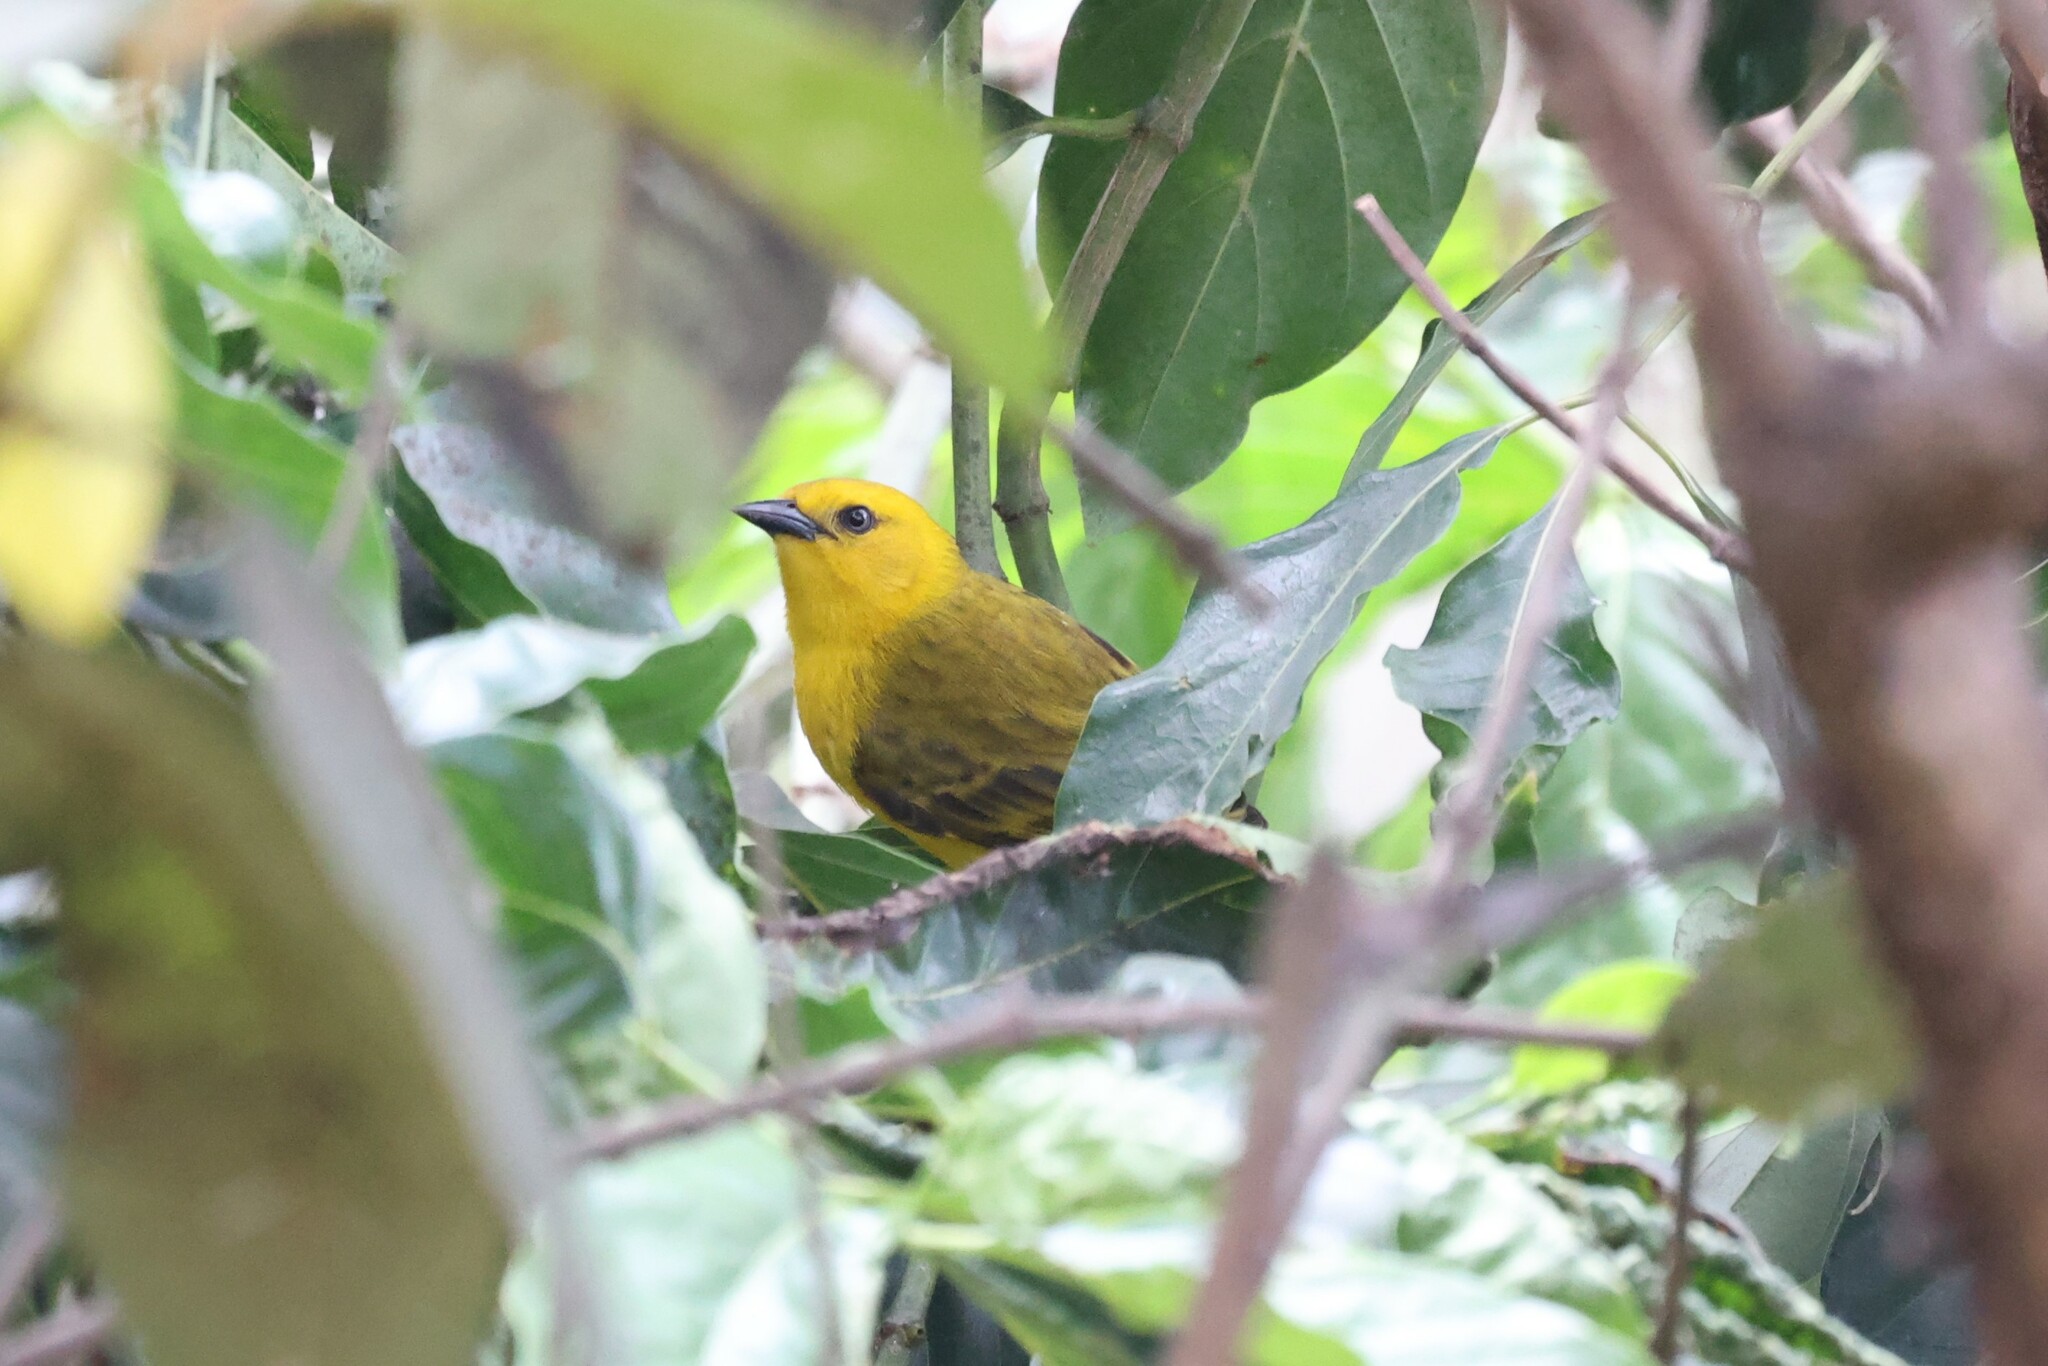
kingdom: Animalia
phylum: Chordata
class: Aves
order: Passeriformes
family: Ploceidae
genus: Ploceus
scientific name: Ploceus pelzelni
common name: Slender-billed weaver
